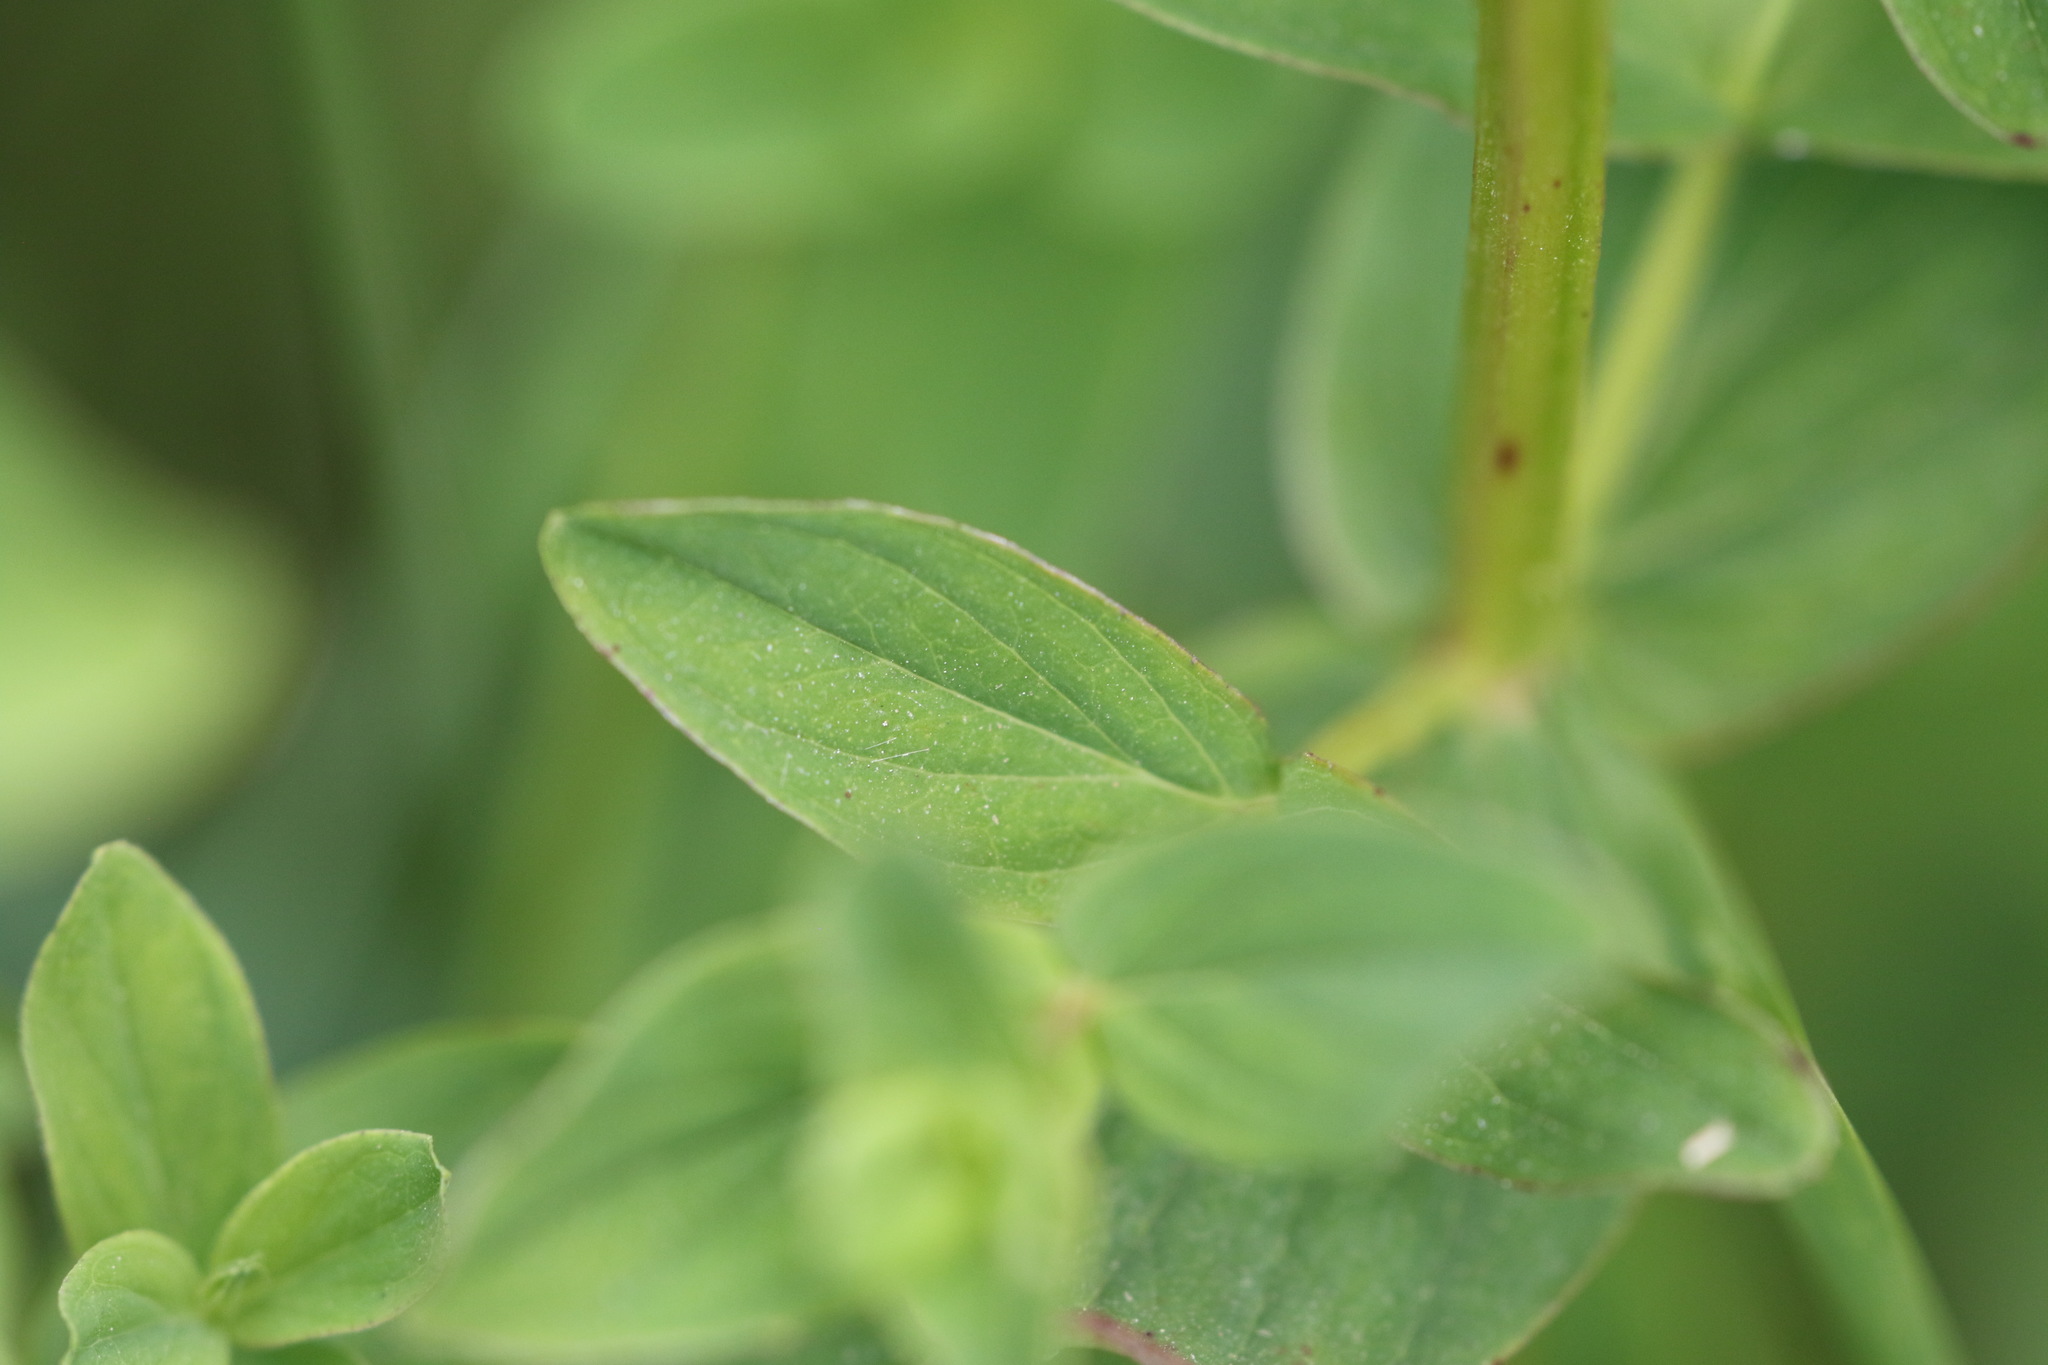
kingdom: Plantae
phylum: Tracheophyta
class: Magnoliopsida
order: Malpighiales
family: Hypericaceae
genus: Hypericum
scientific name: Hypericum tetrapterum
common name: Square-stalked st. john's-wort
